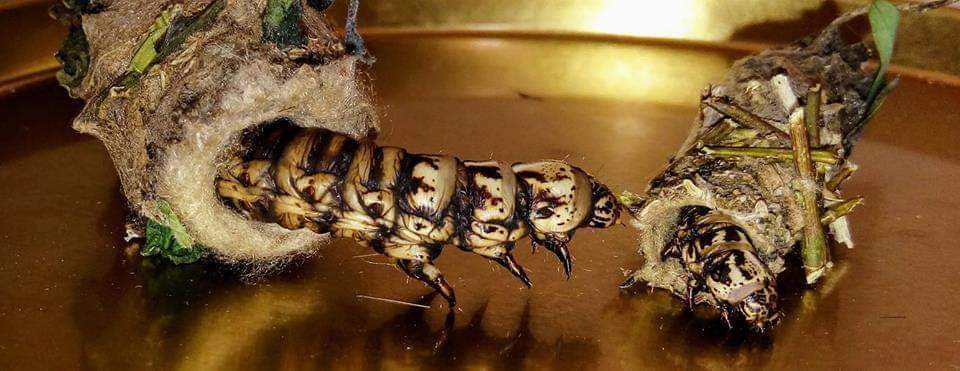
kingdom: Animalia
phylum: Arthropoda
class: Insecta
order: Lepidoptera
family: Psychidae
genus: Oiketicus
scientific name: Oiketicus kirbyi
